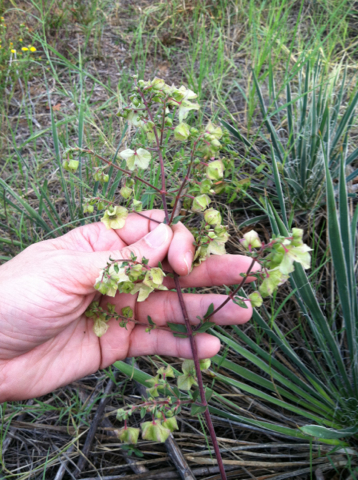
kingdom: Plantae
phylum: Tracheophyta
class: Magnoliopsida
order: Caryophyllales
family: Nyctaginaceae
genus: Mirabilis
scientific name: Mirabilis albida
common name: Hairy four-o'clock
